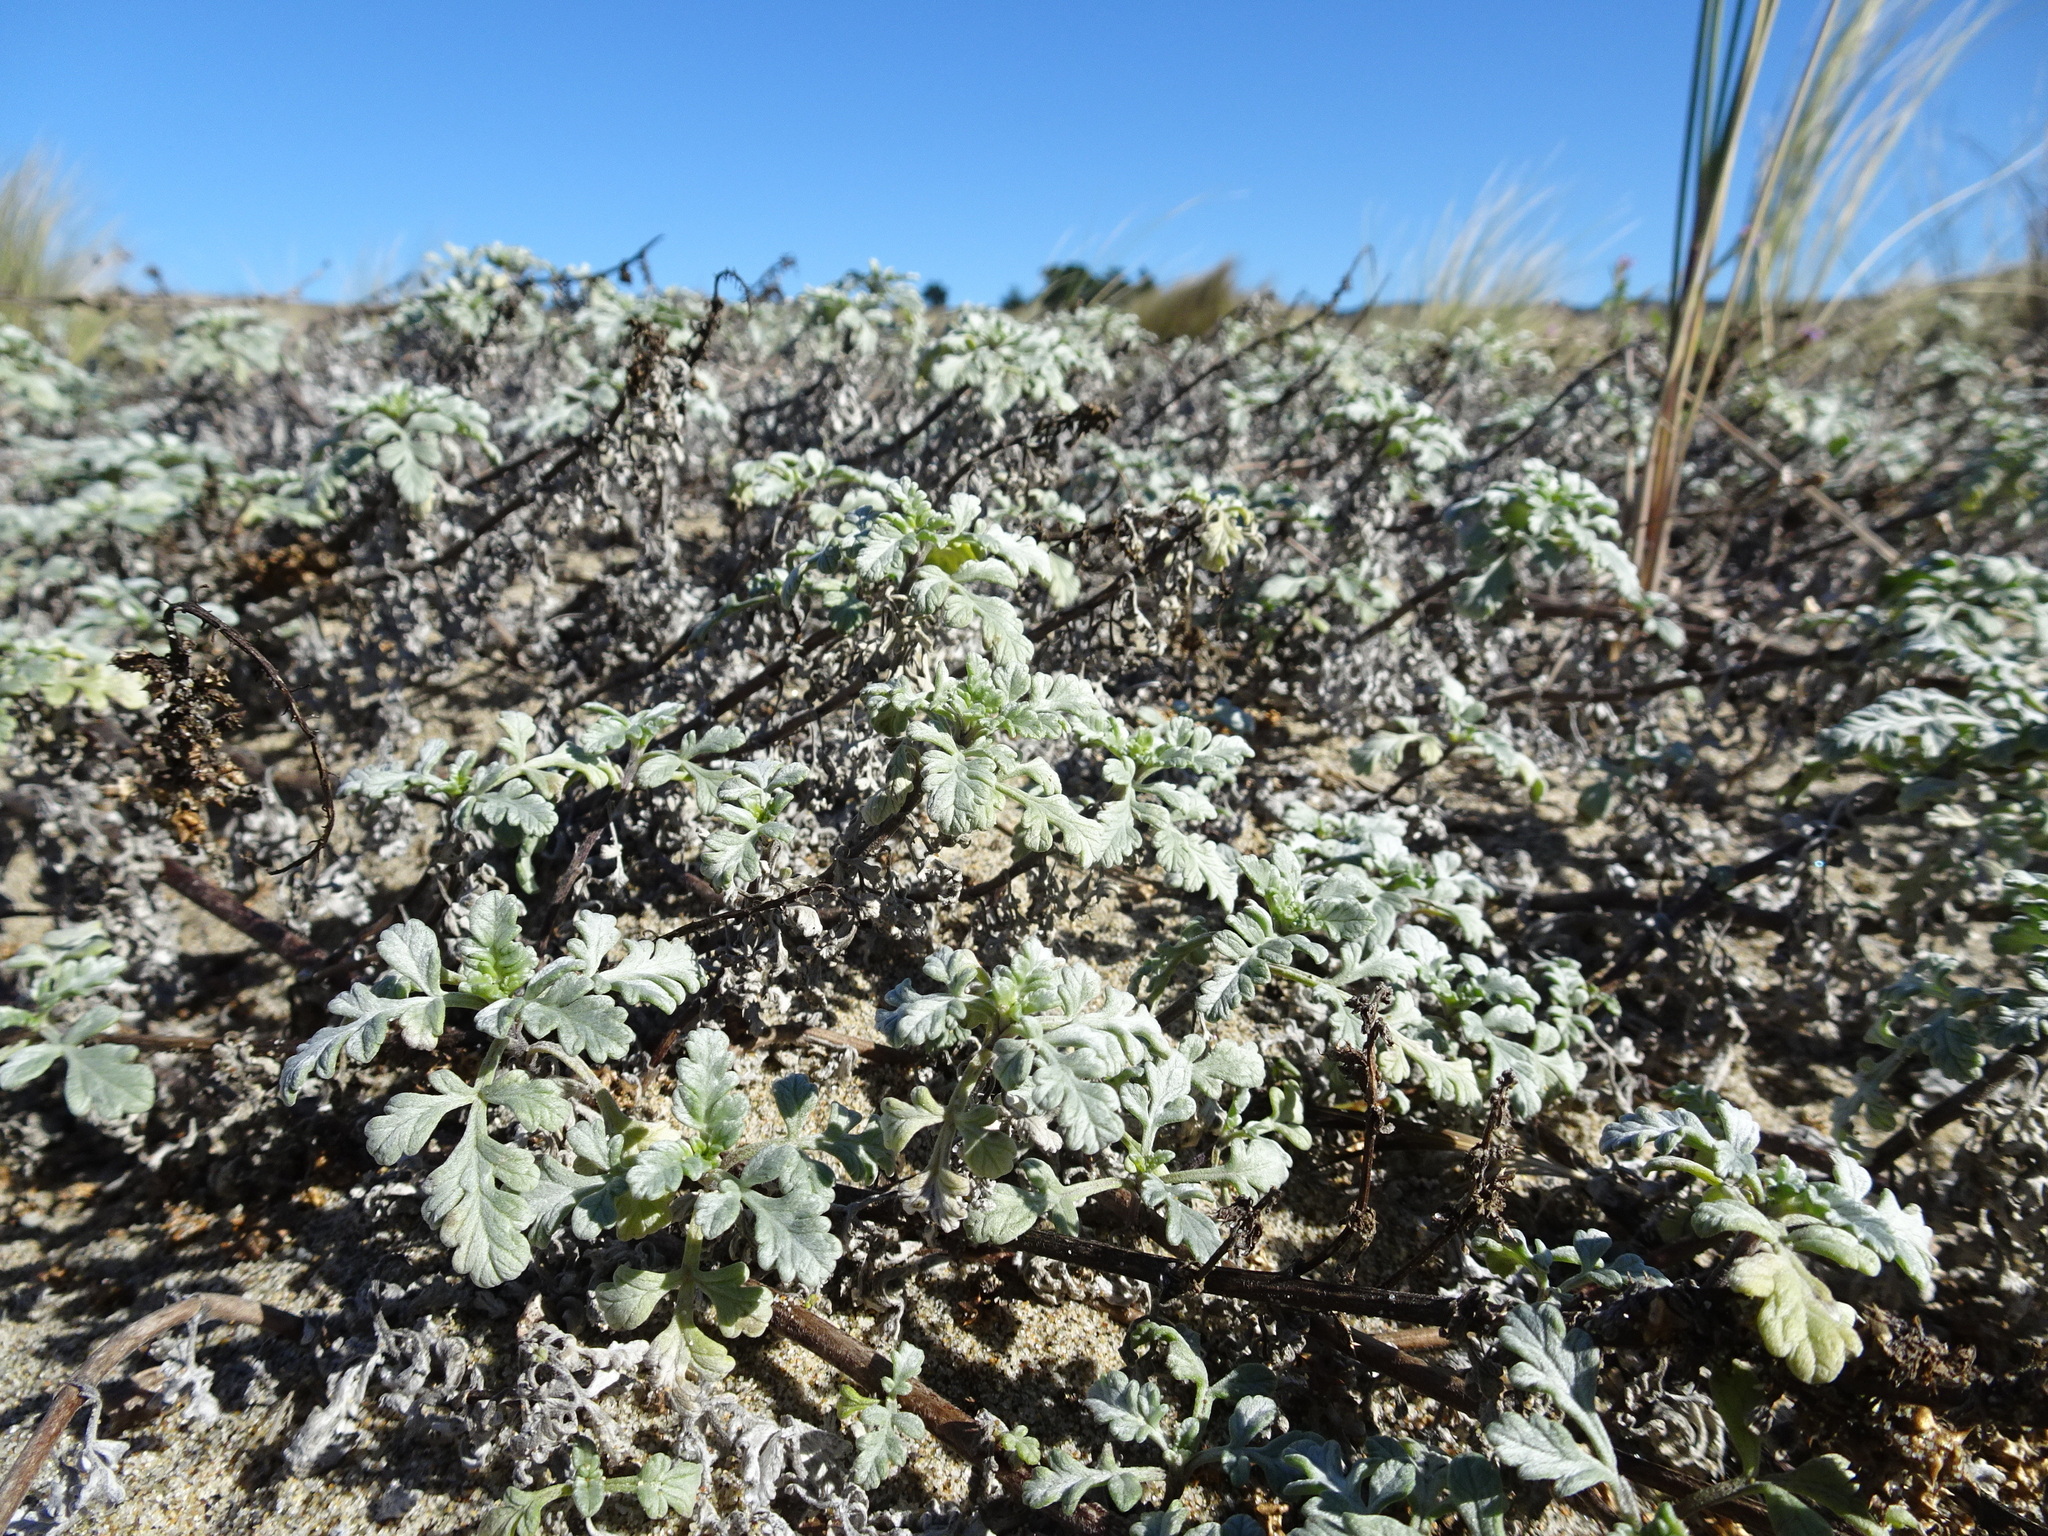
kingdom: Plantae
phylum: Tracheophyta
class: Magnoliopsida
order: Asterales
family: Asteraceae
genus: Ambrosia
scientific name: Ambrosia chamissonis
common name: Beachbur
